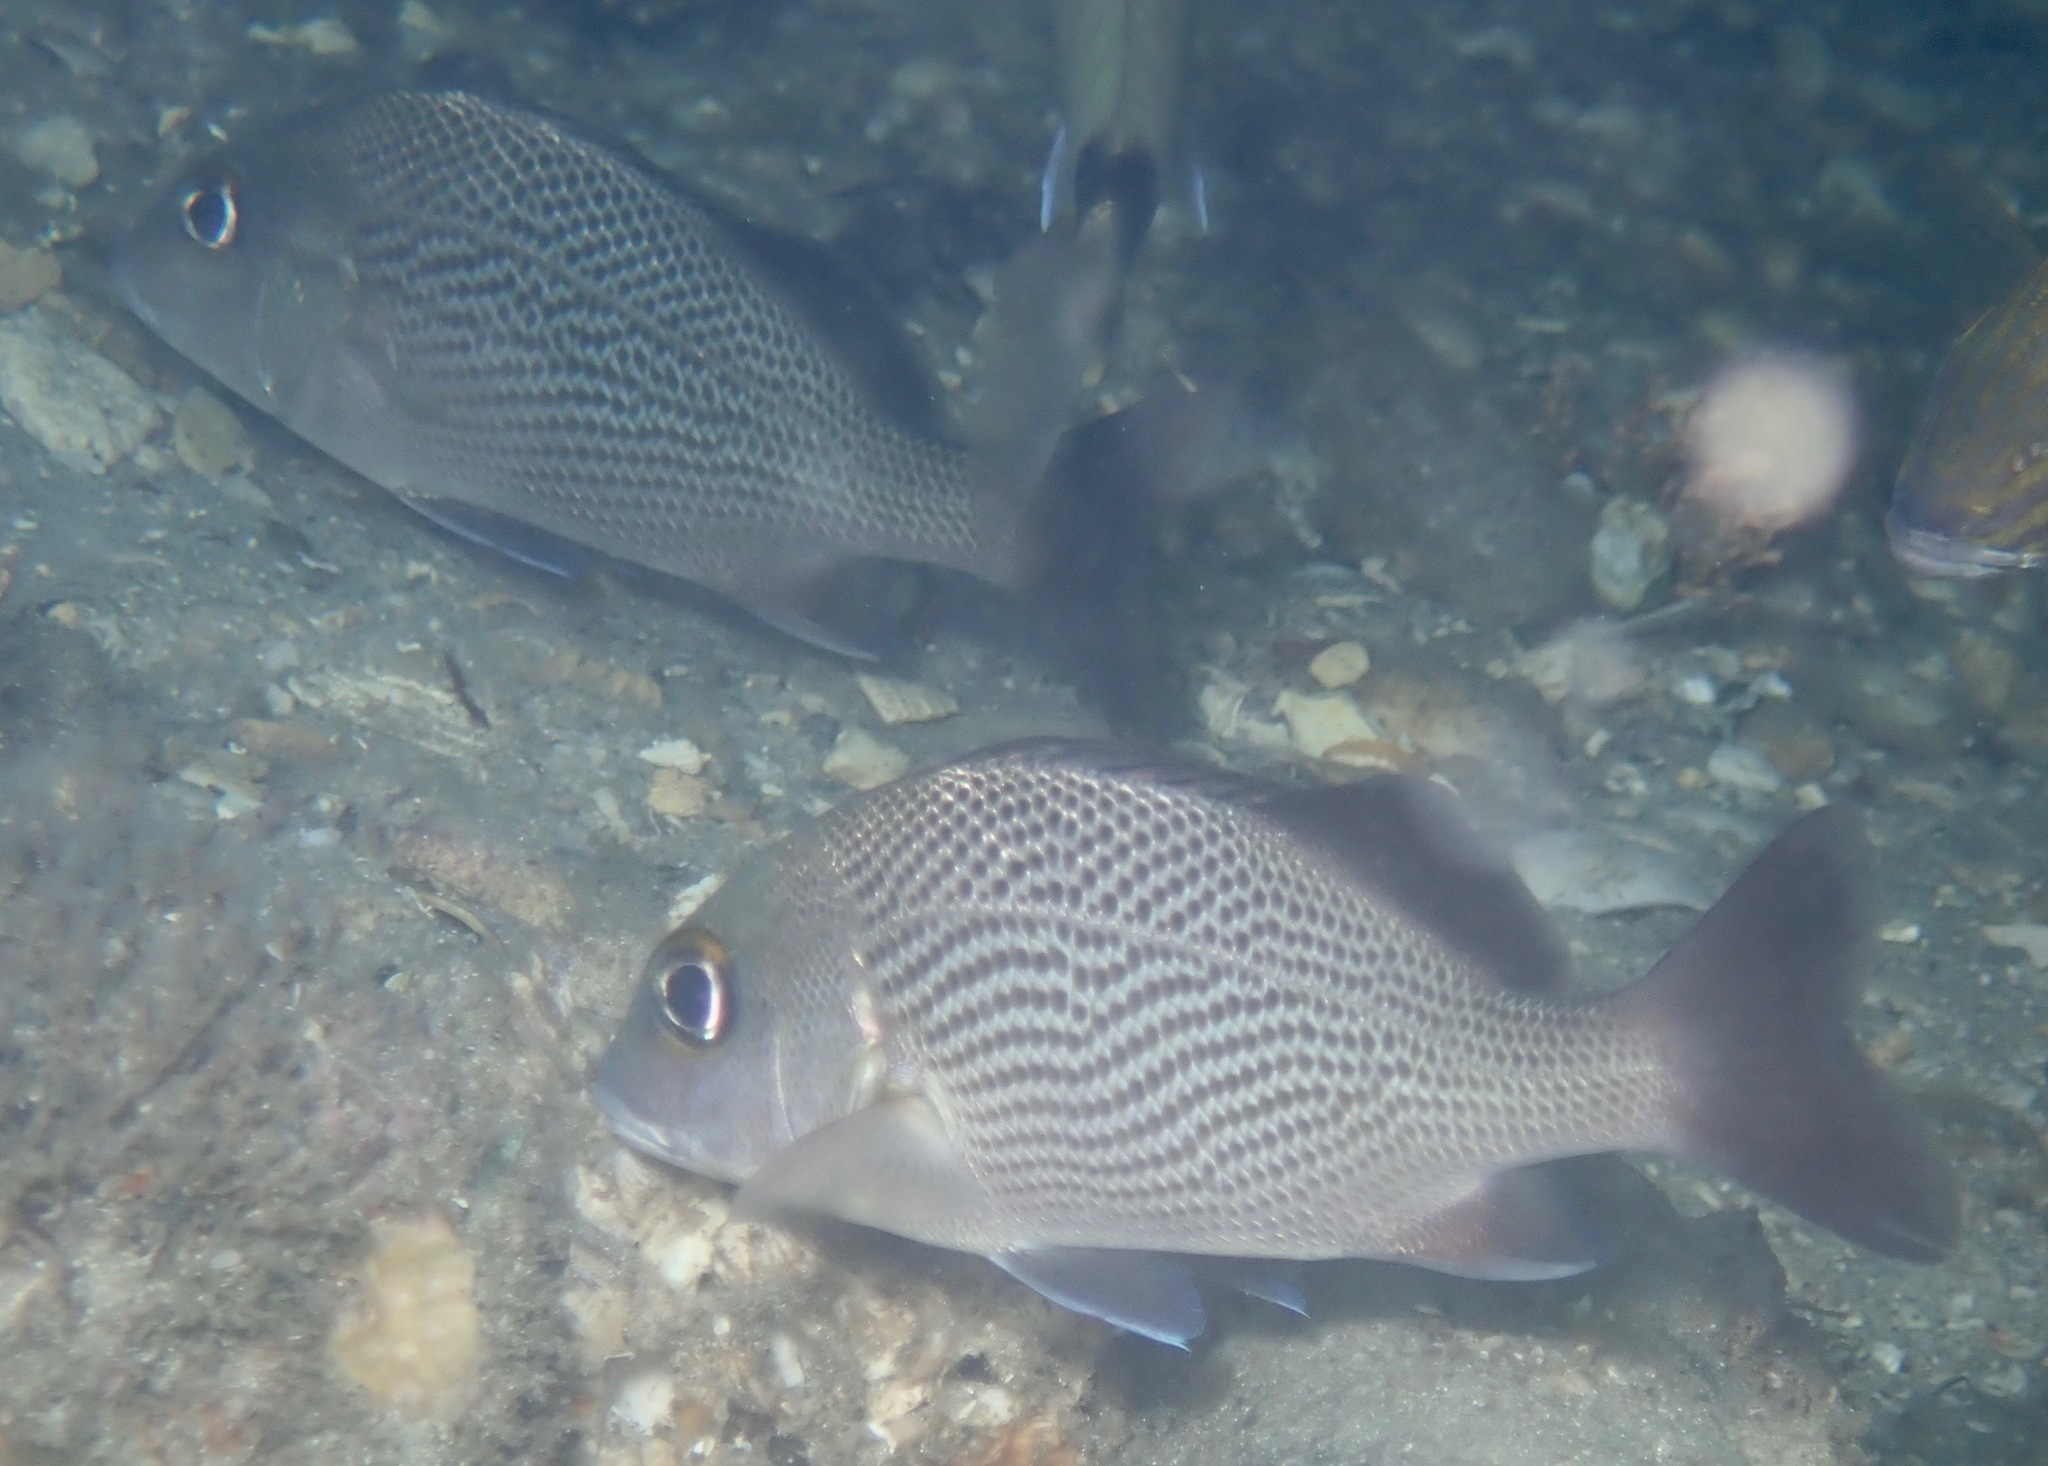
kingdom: Animalia
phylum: Chordata
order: Perciformes
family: Haemulidae
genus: Haemulon
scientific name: Haemulon parra
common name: Sailor's choice
